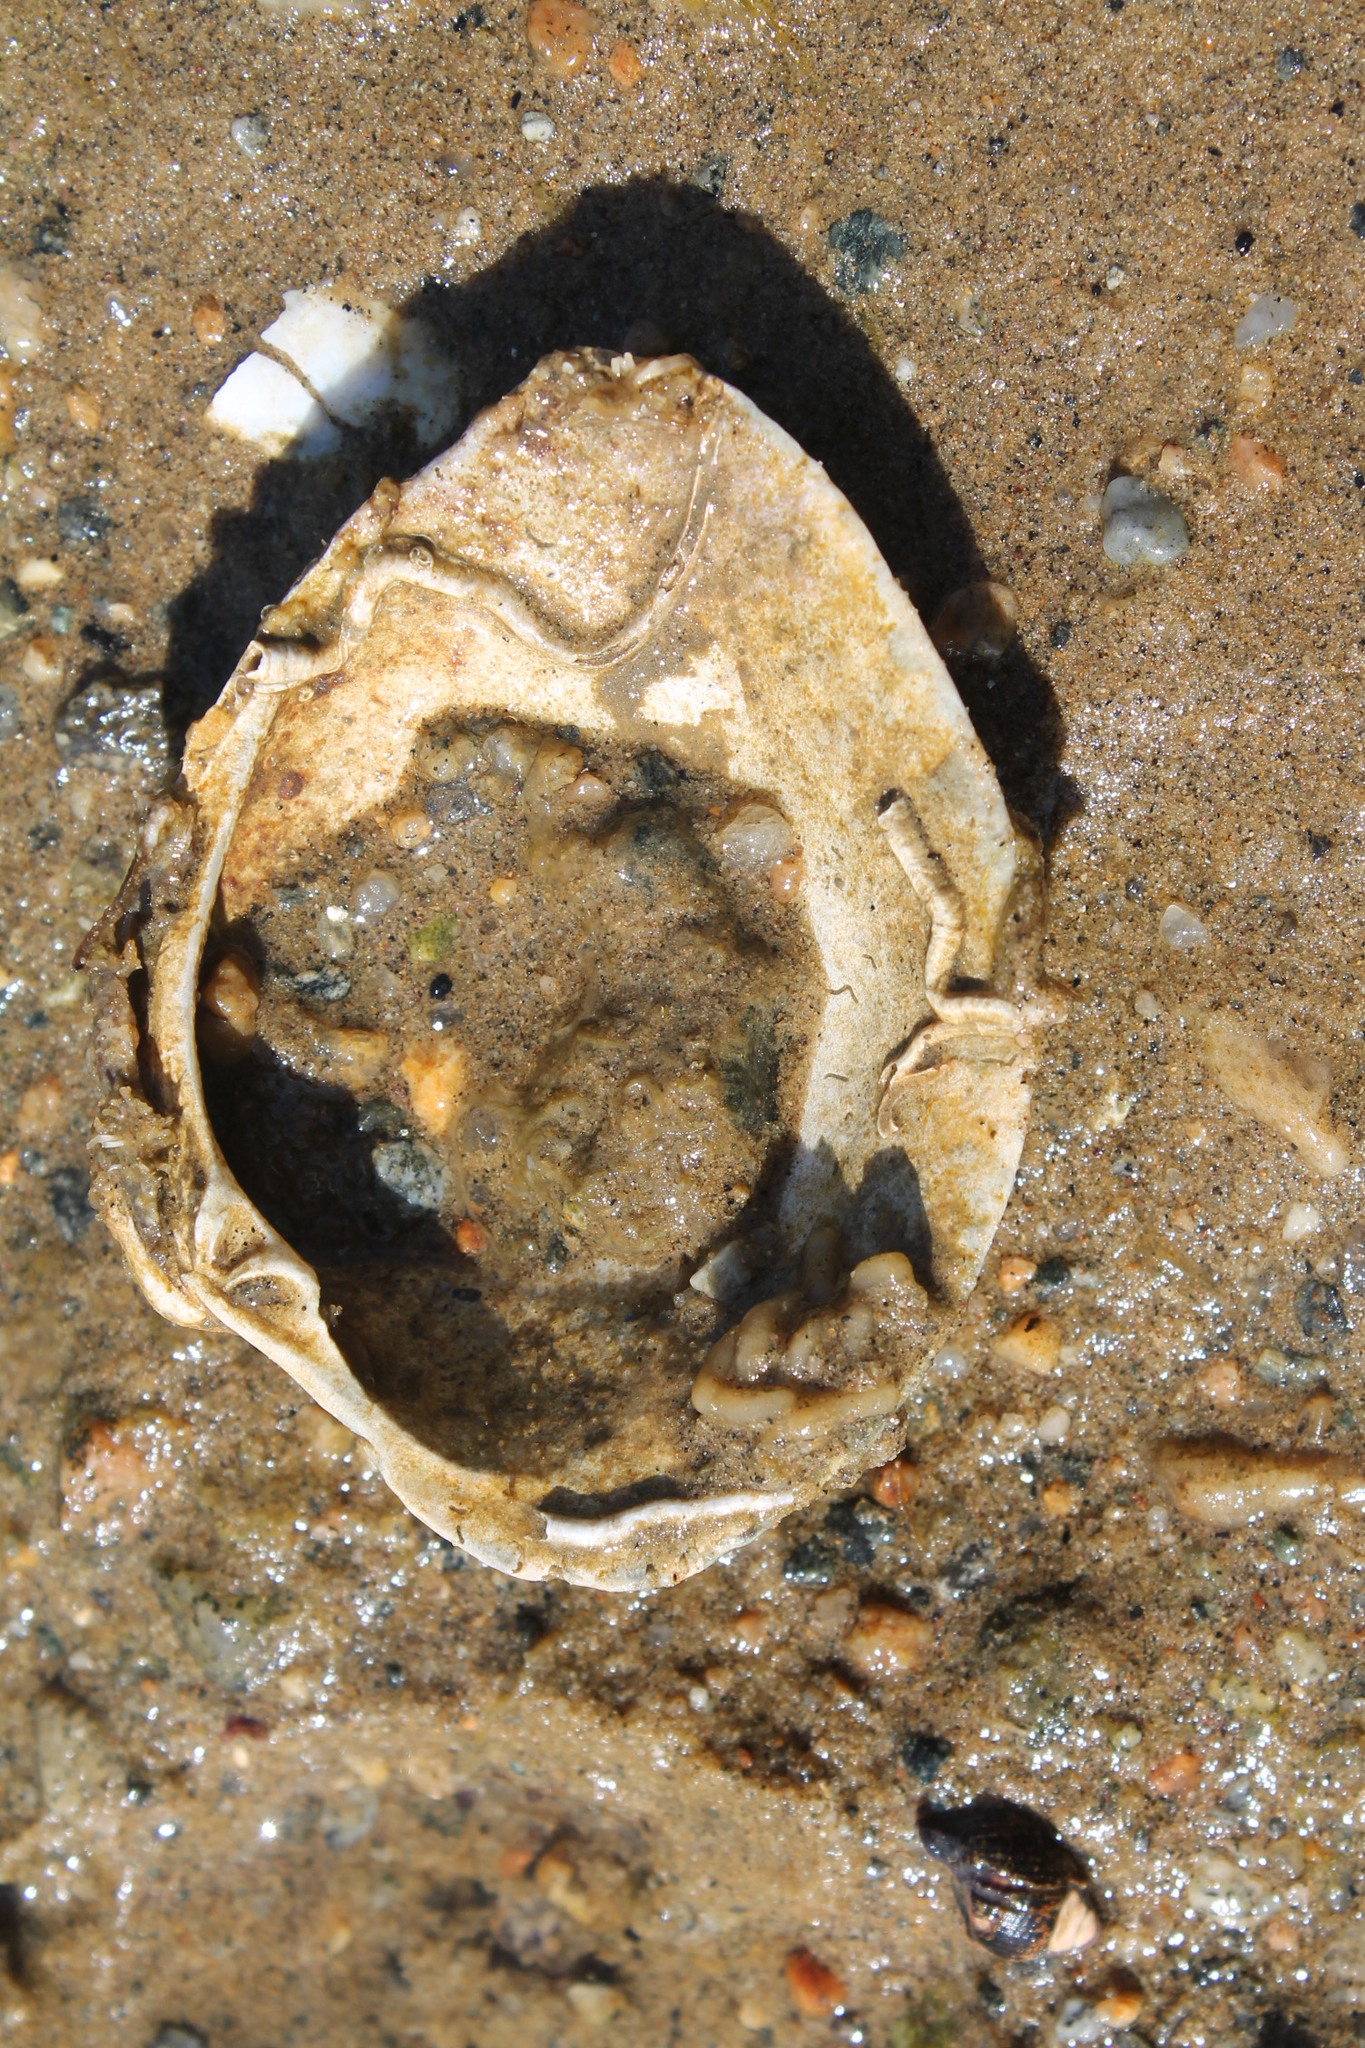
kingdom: Animalia
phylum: Mollusca
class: Bivalvia
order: Venerida
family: Veneridae
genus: Mercenaria
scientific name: Mercenaria mercenaria
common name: American hard-shelled clam
